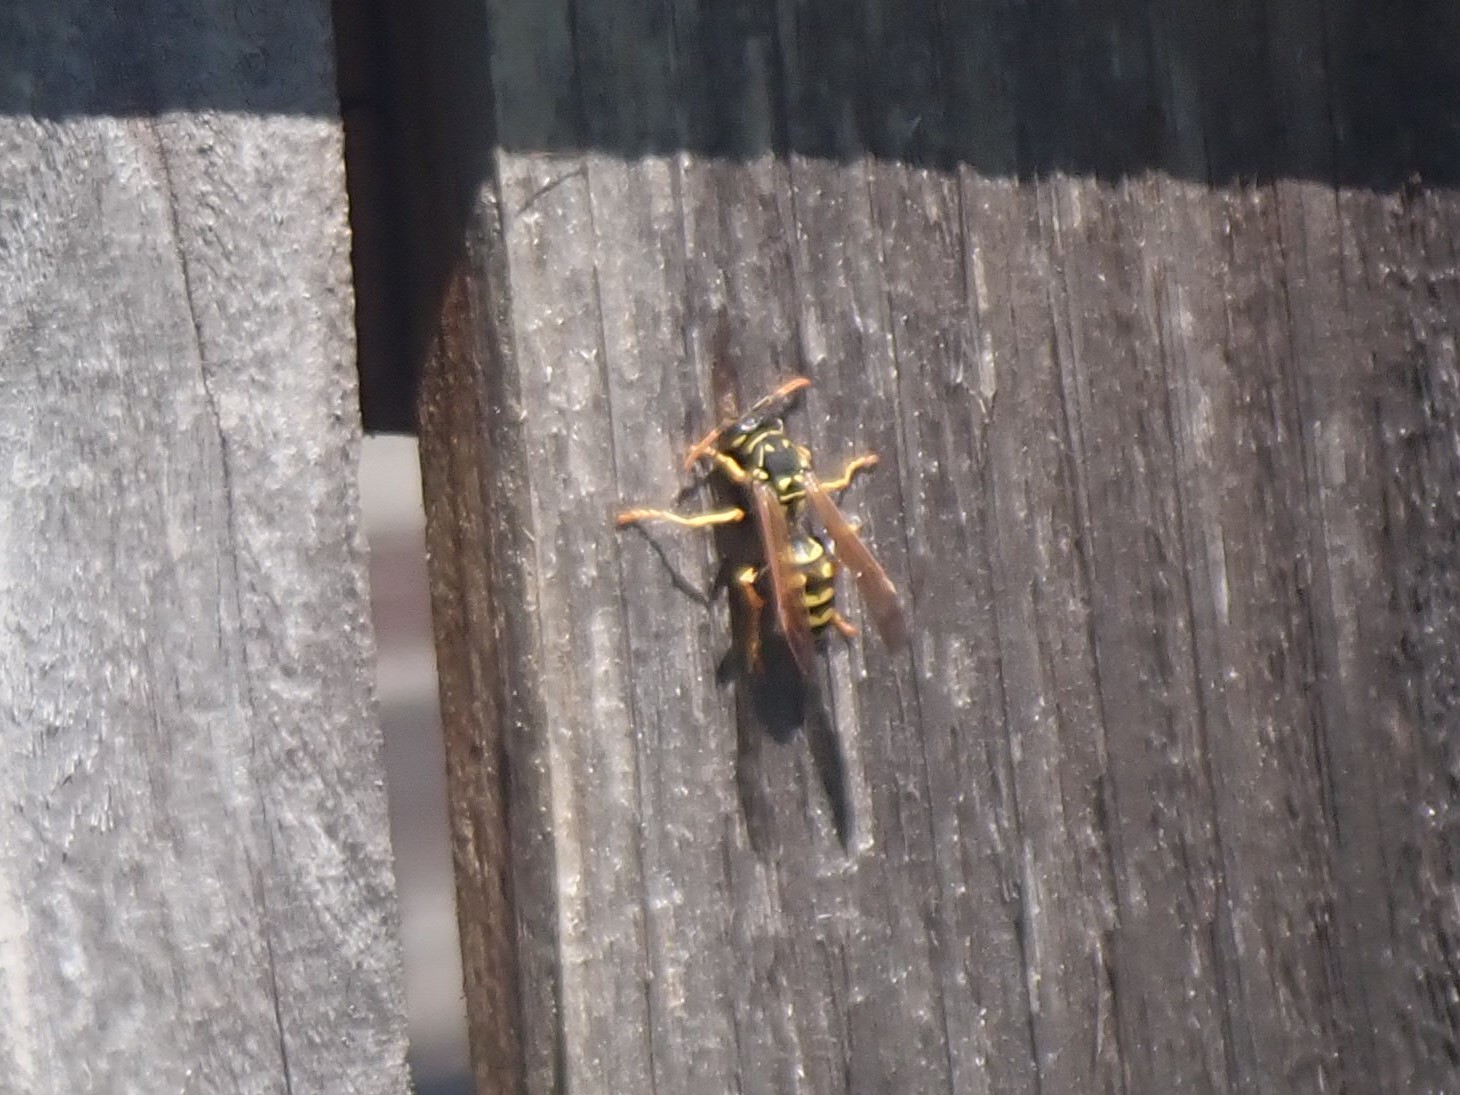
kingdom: Animalia
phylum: Arthropoda
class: Insecta
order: Hymenoptera
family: Eumenidae
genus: Polistes
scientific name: Polistes dominula
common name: Paper wasp
